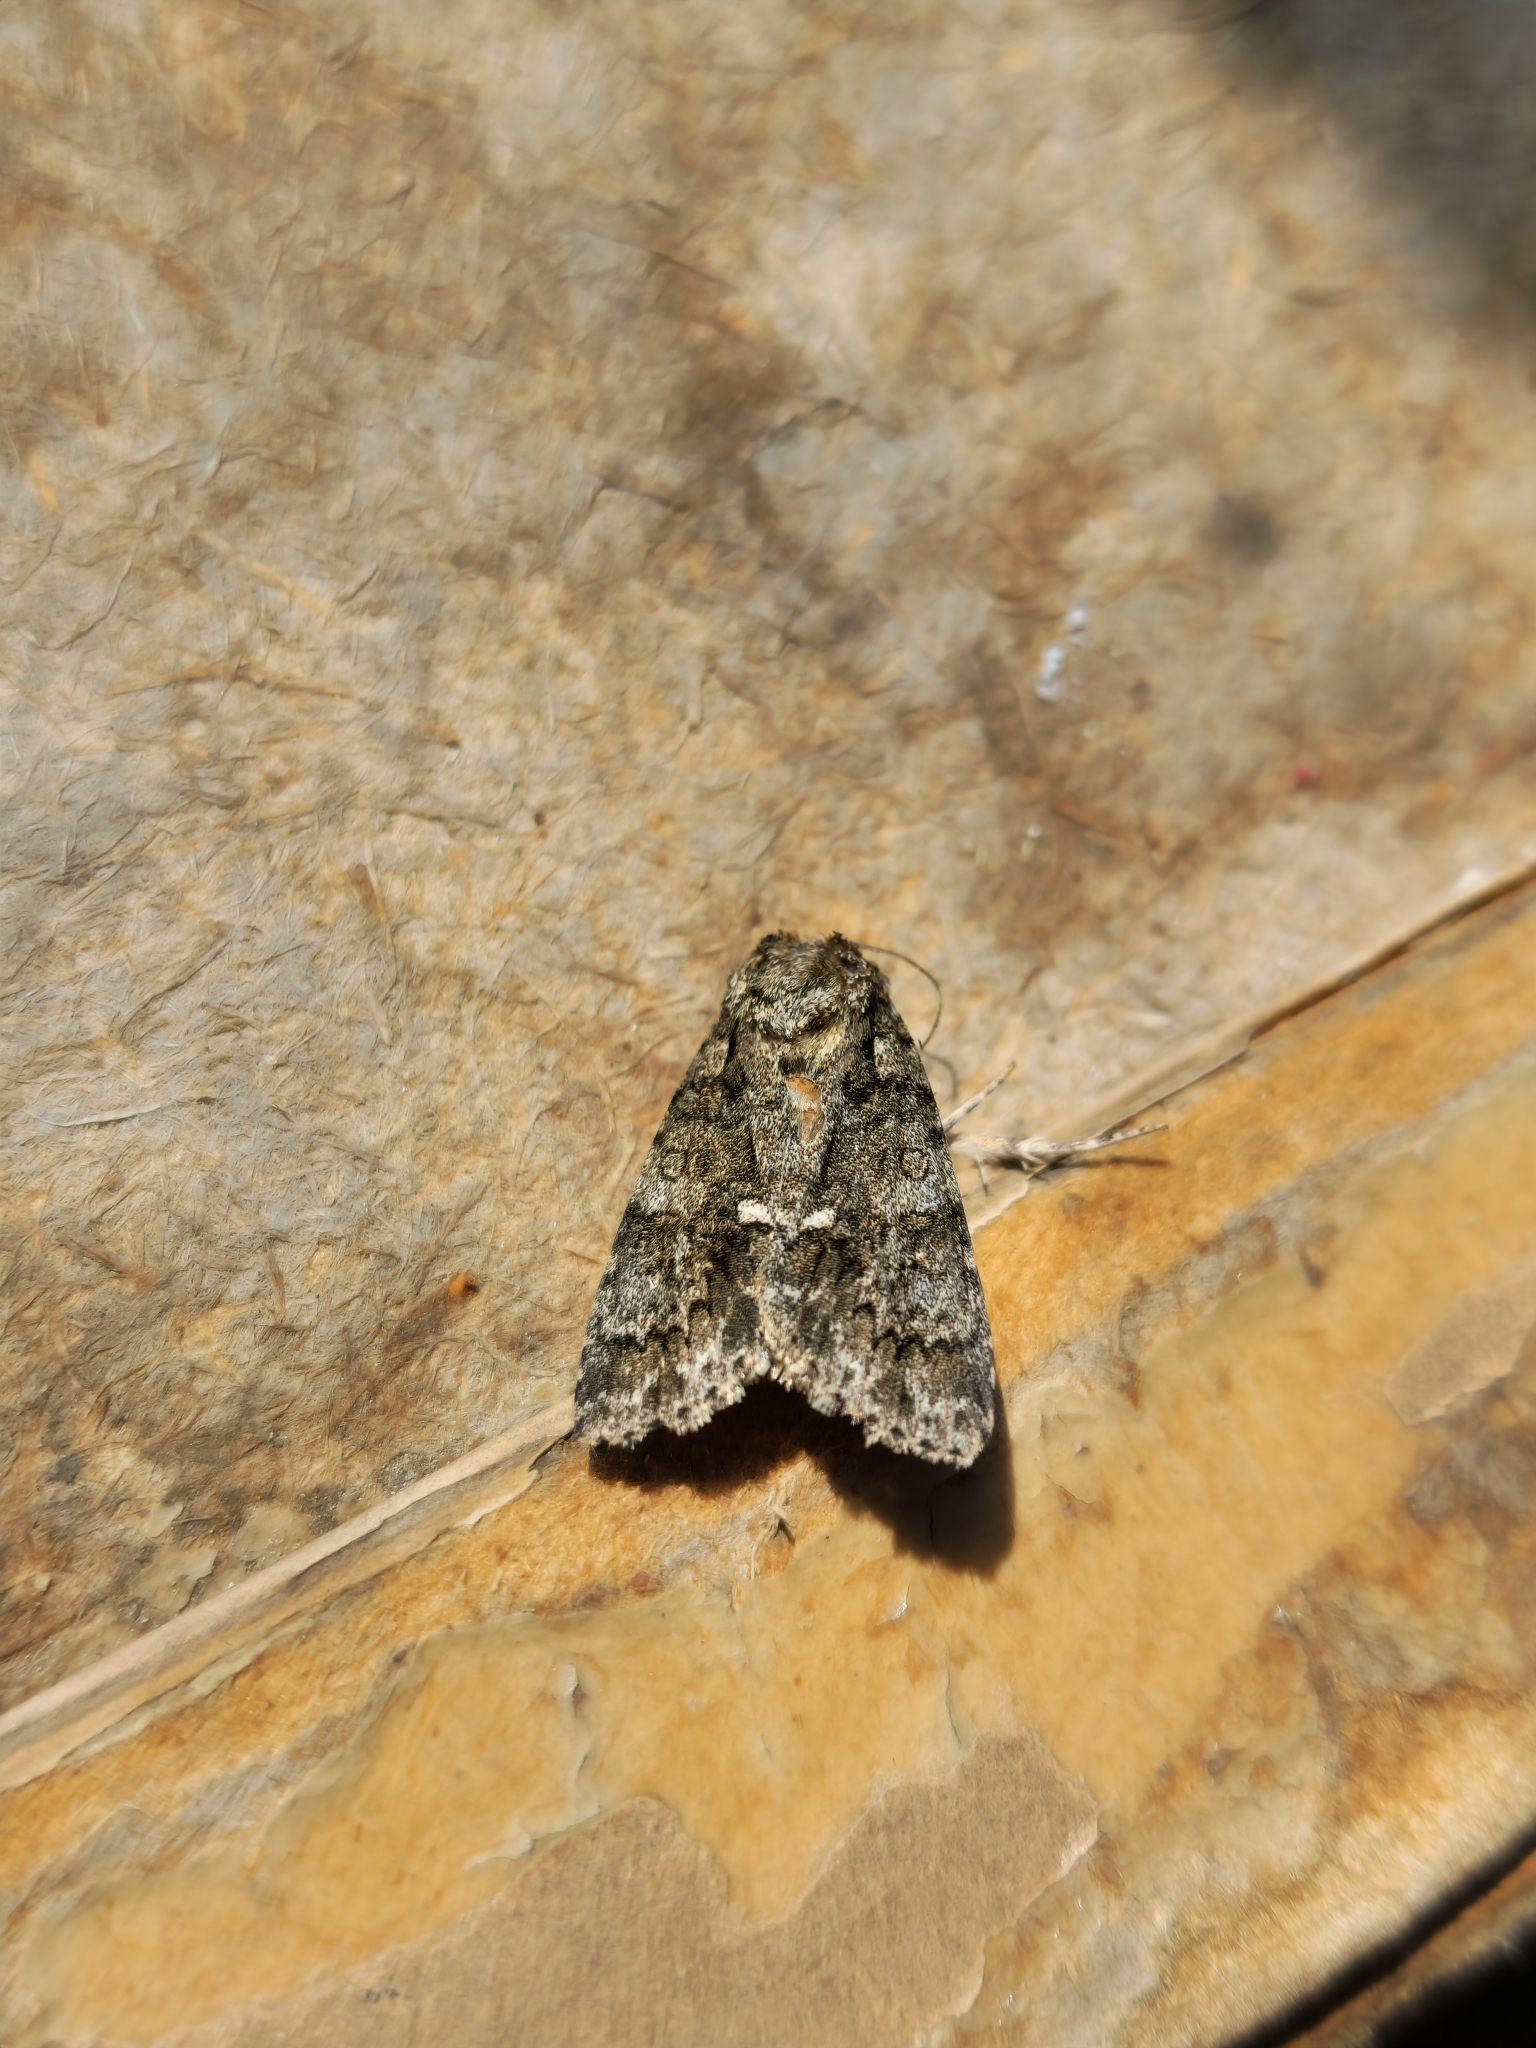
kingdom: Animalia
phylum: Arthropoda
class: Insecta
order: Lepidoptera
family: Noctuidae
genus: Acronicta
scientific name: Acronicta rumicis
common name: Knot grass
